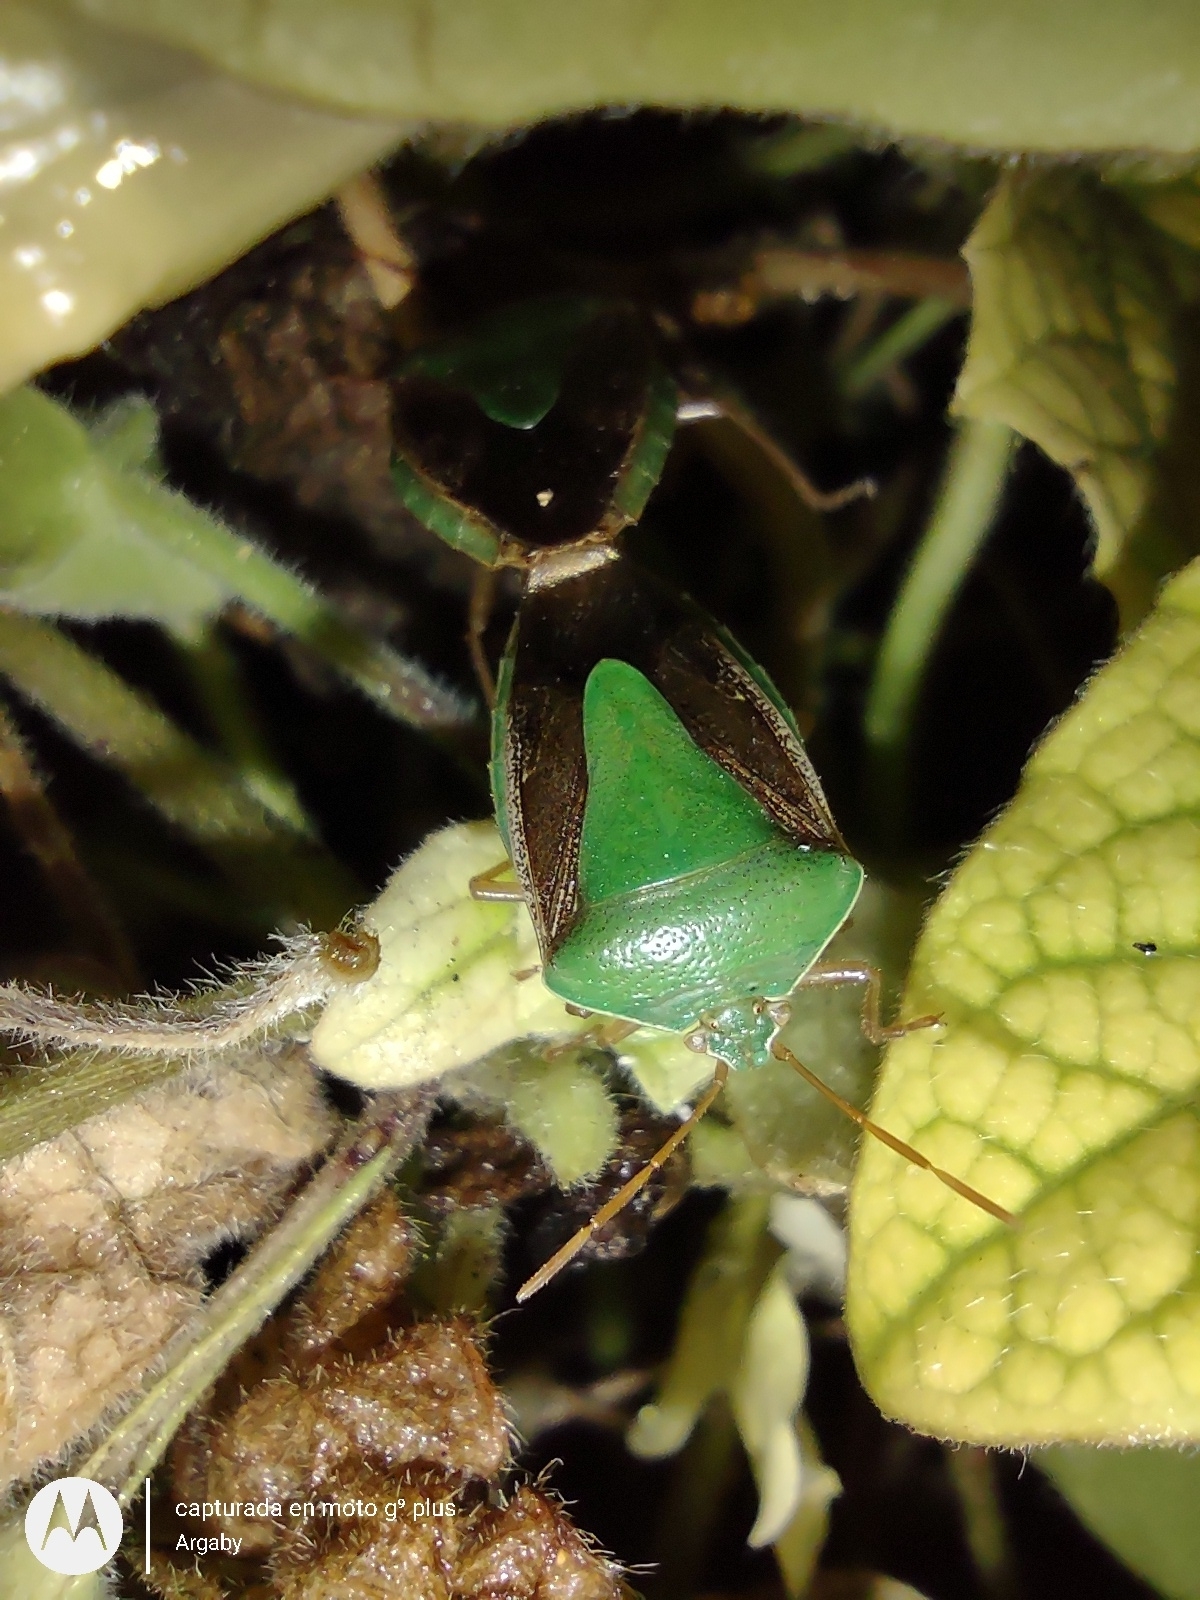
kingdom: Animalia
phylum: Arthropoda
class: Insecta
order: Hemiptera
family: Pentatomidae
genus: Edessa
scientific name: Edessa meditabunda
